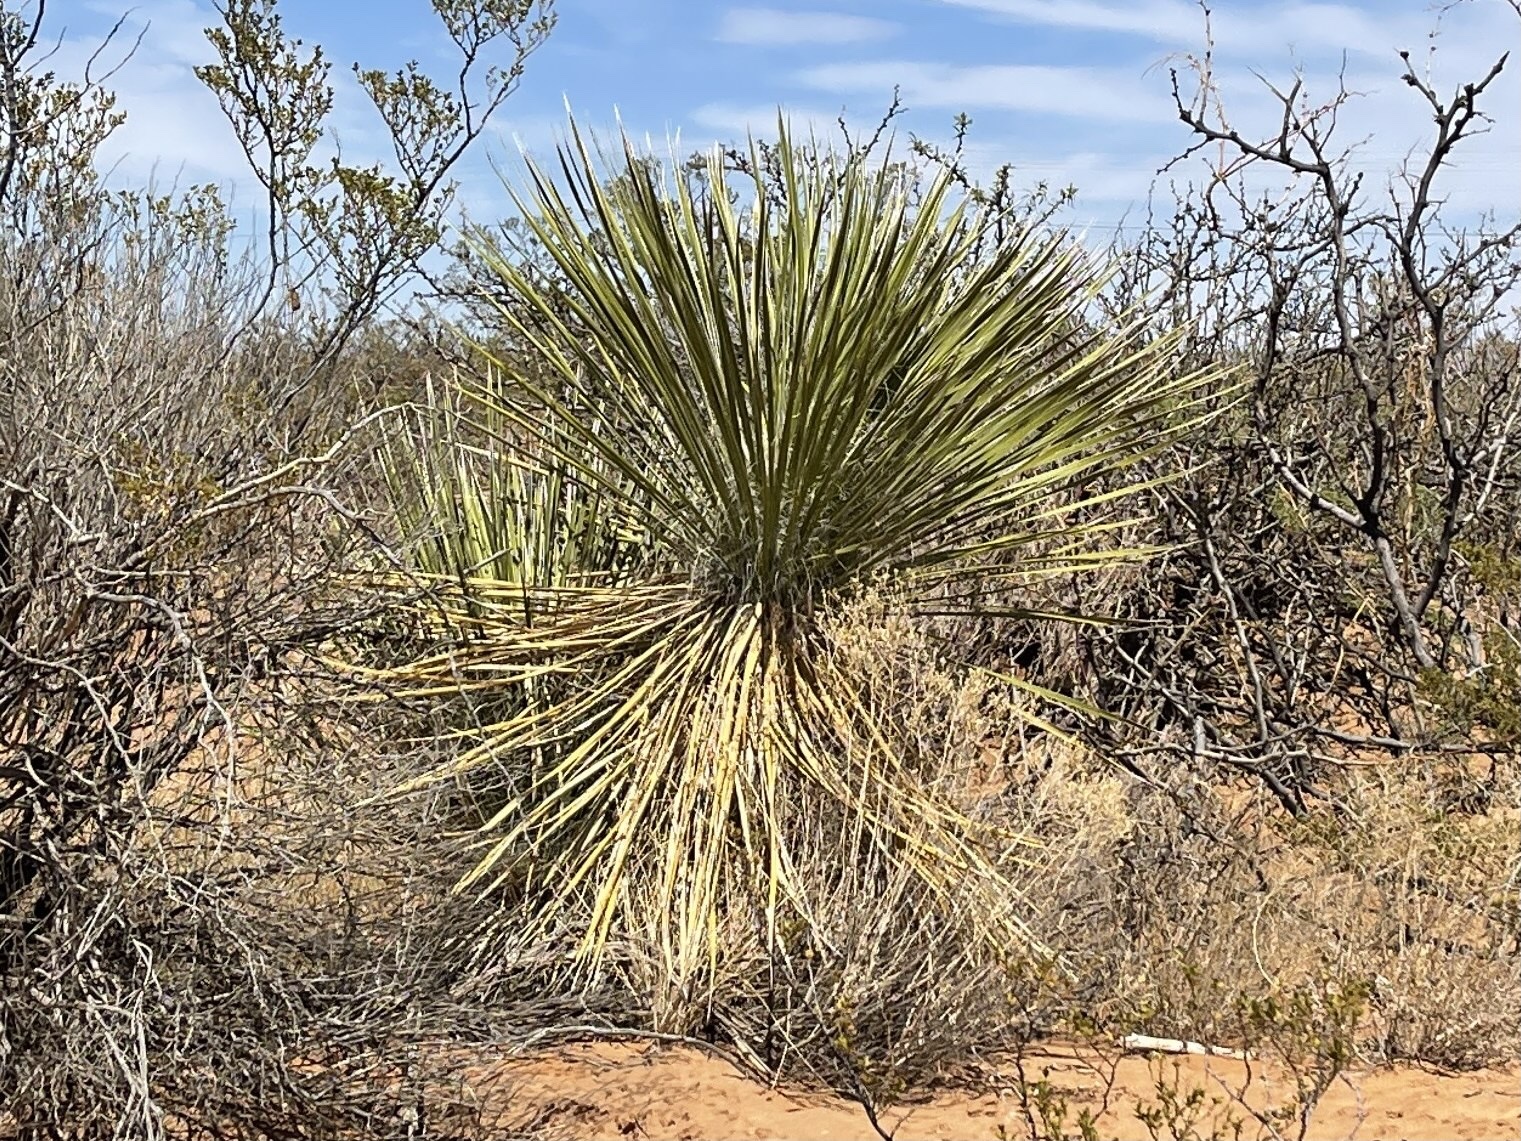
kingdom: Plantae
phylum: Tracheophyta
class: Liliopsida
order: Asparagales
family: Asparagaceae
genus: Yucca
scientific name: Yucca elata
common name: Palmella
